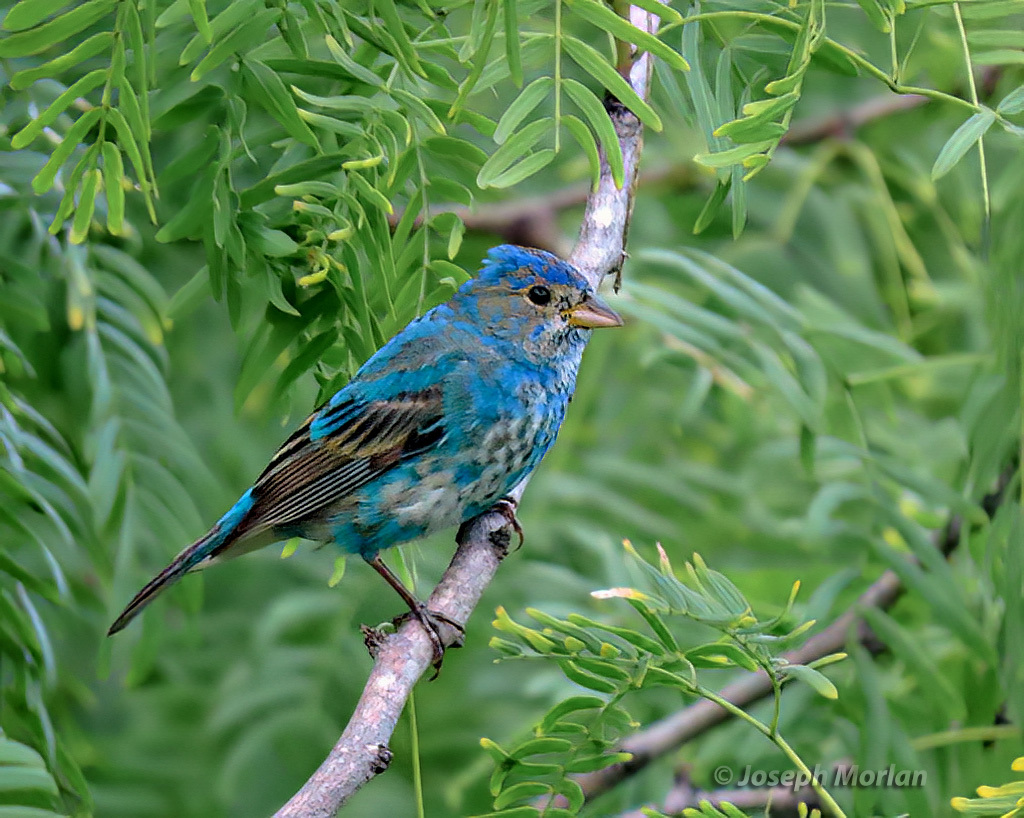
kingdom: Animalia
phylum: Chordata
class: Aves
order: Passeriformes
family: Cardinalidae
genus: Passerina
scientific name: Passerina cyanea
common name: Indigo bunting
